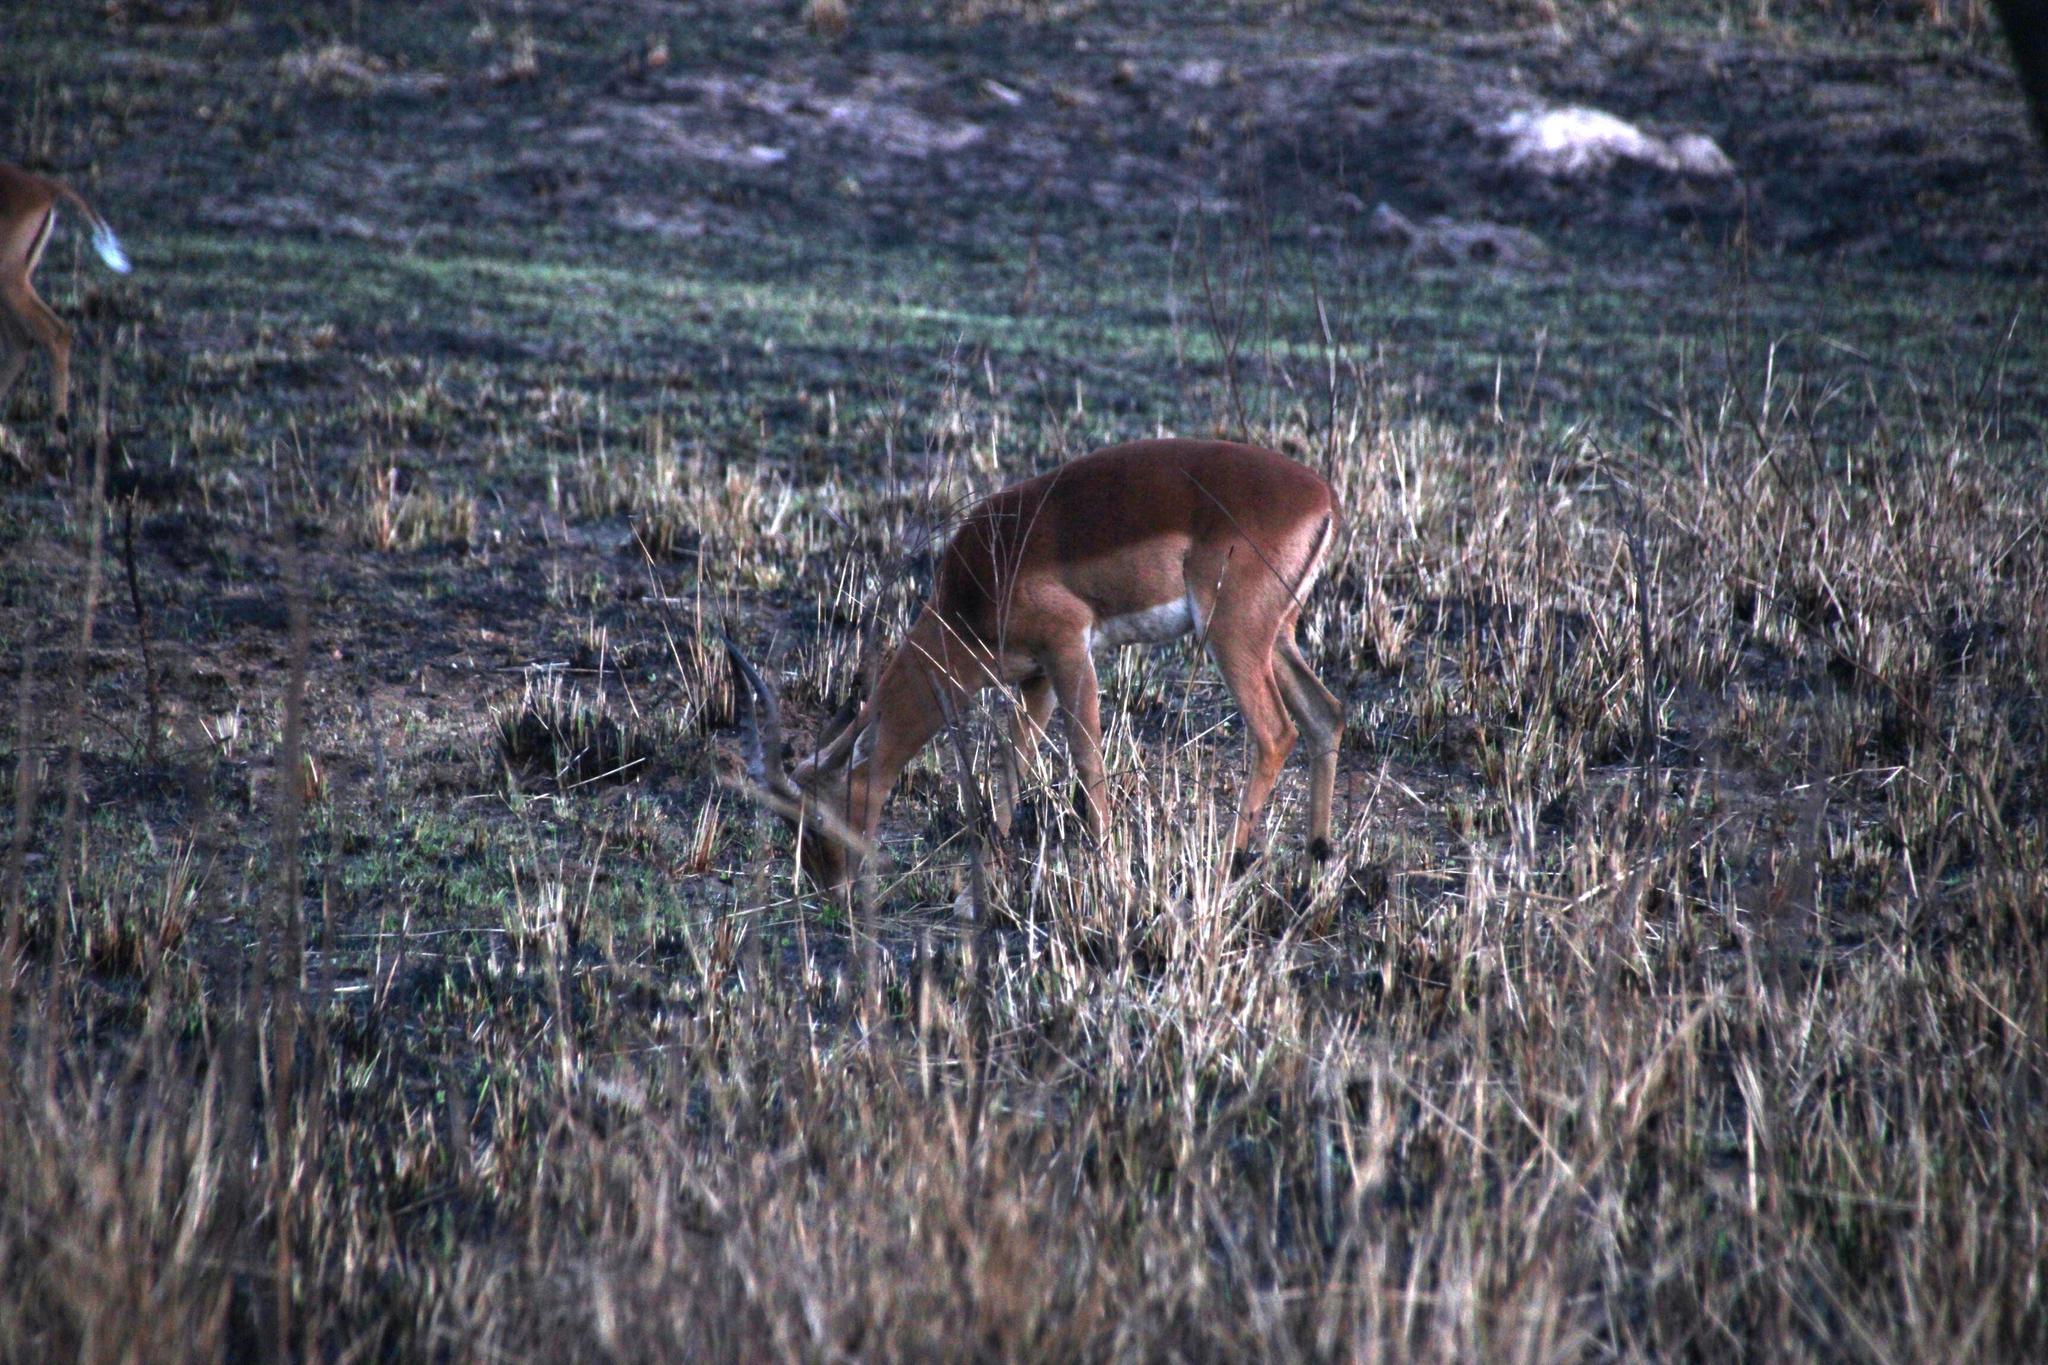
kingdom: Animalia
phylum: Chordata
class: Mammalia
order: Artiodactyla
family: Bovidae
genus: Aepyceros
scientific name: Aepyceros melampus
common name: Impala
